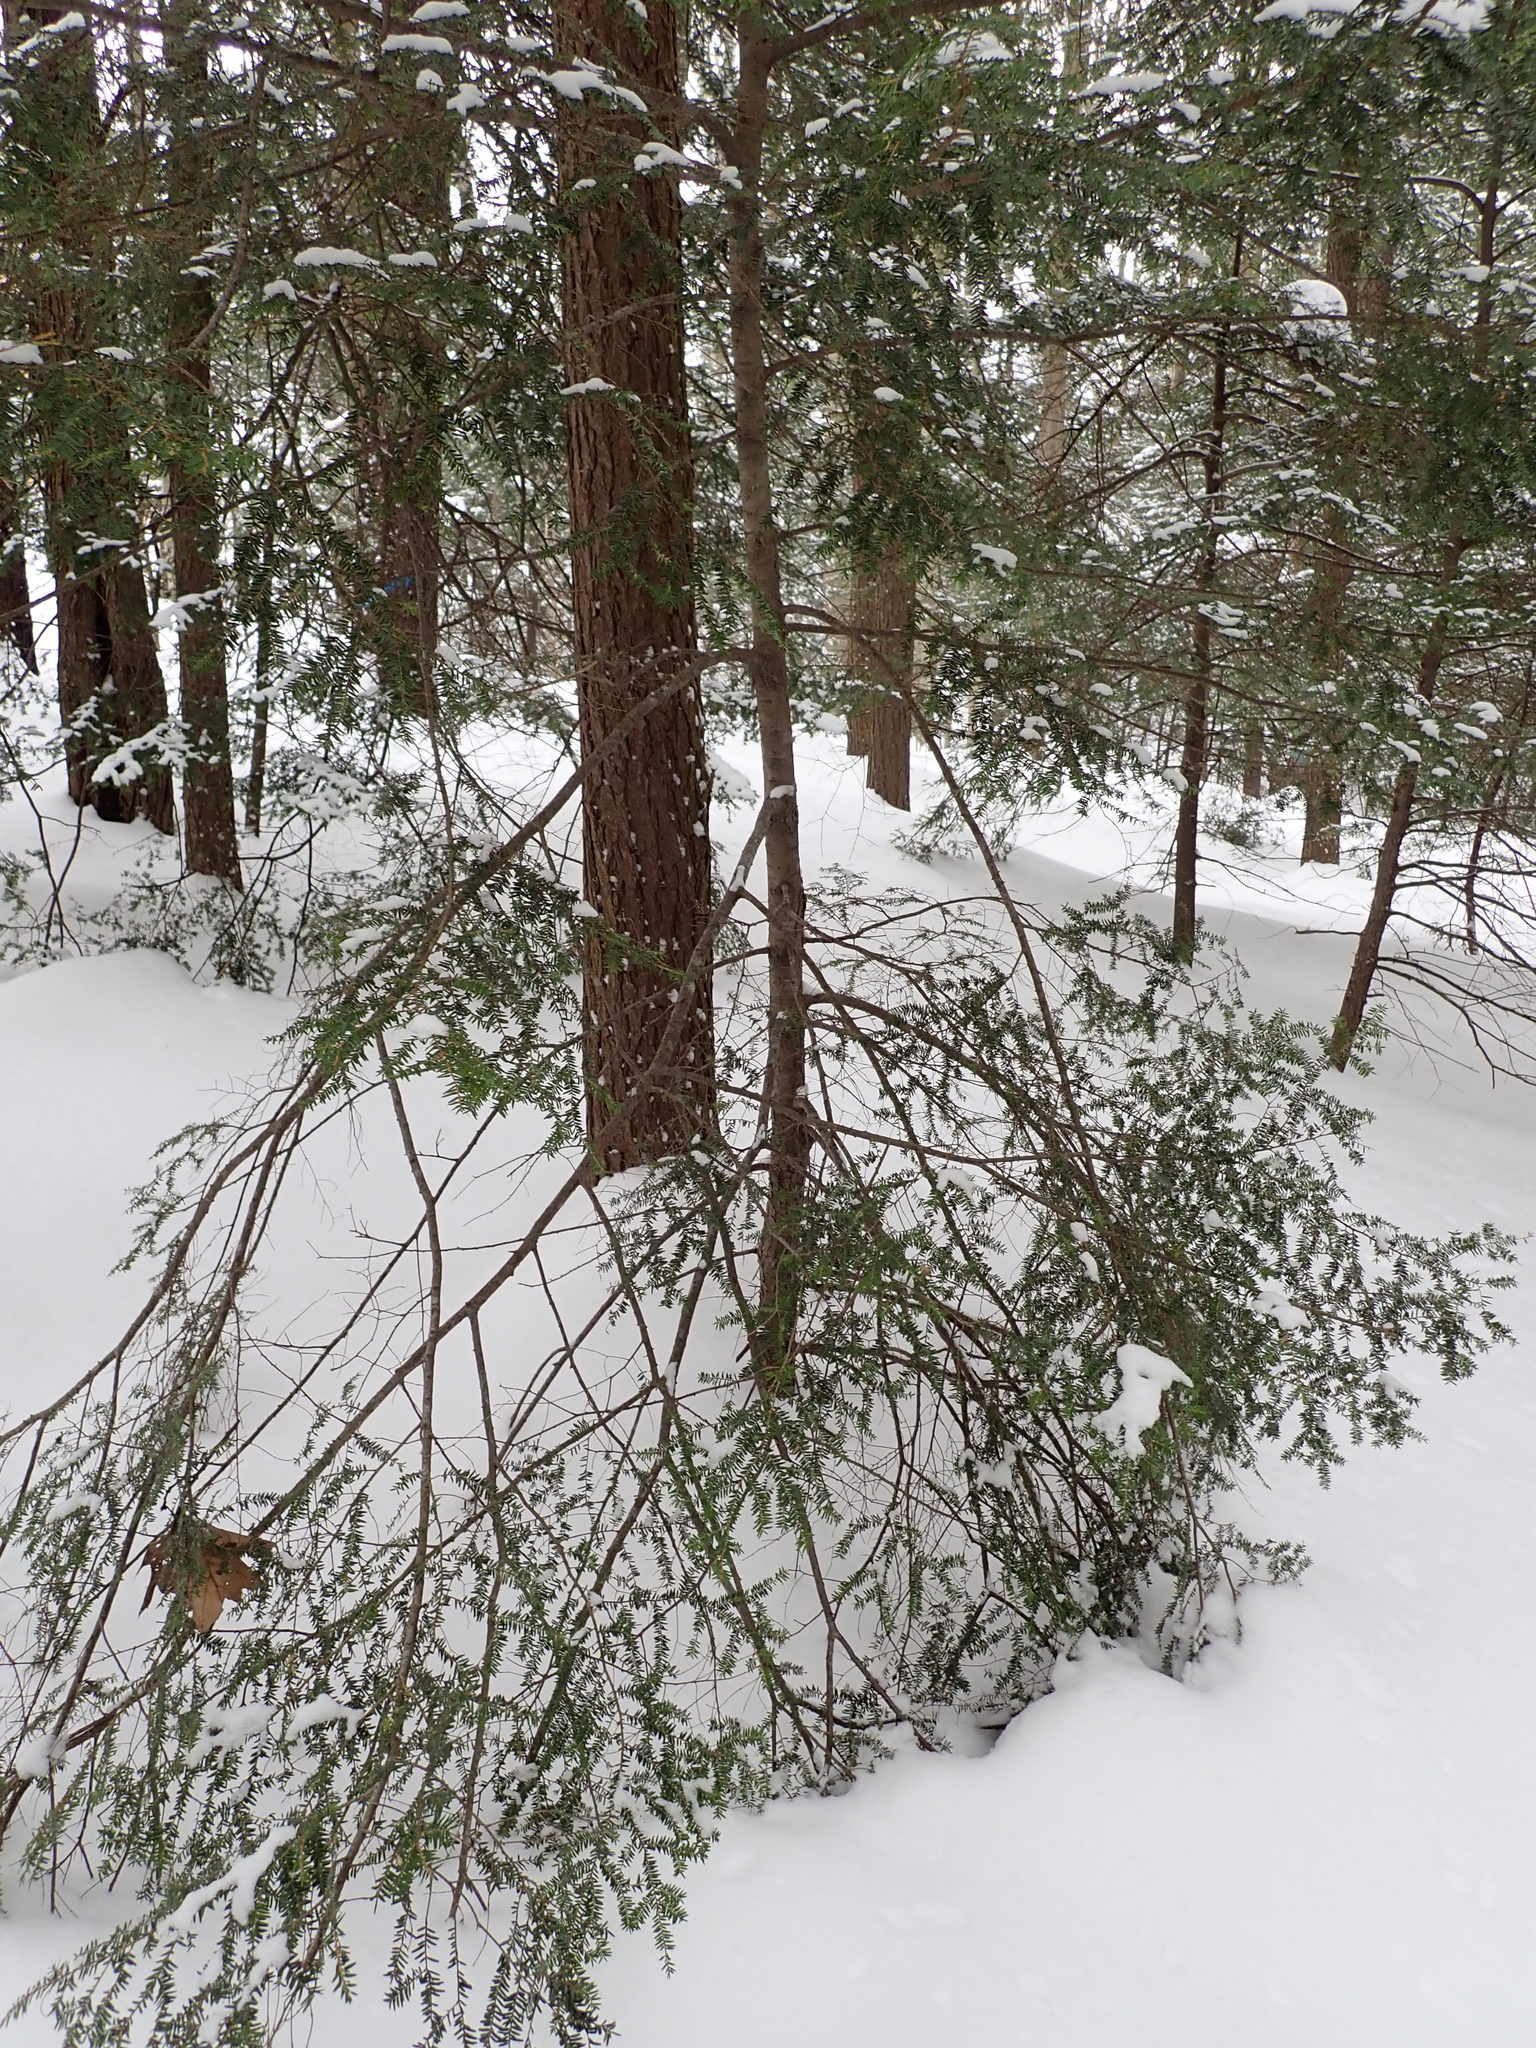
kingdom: Plantae
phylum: Tracheophyta
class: Pinopsida
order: Pinales
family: Pinaceae
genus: Tsuga
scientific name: Tsuga canadensis
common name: Eastern hemlock
